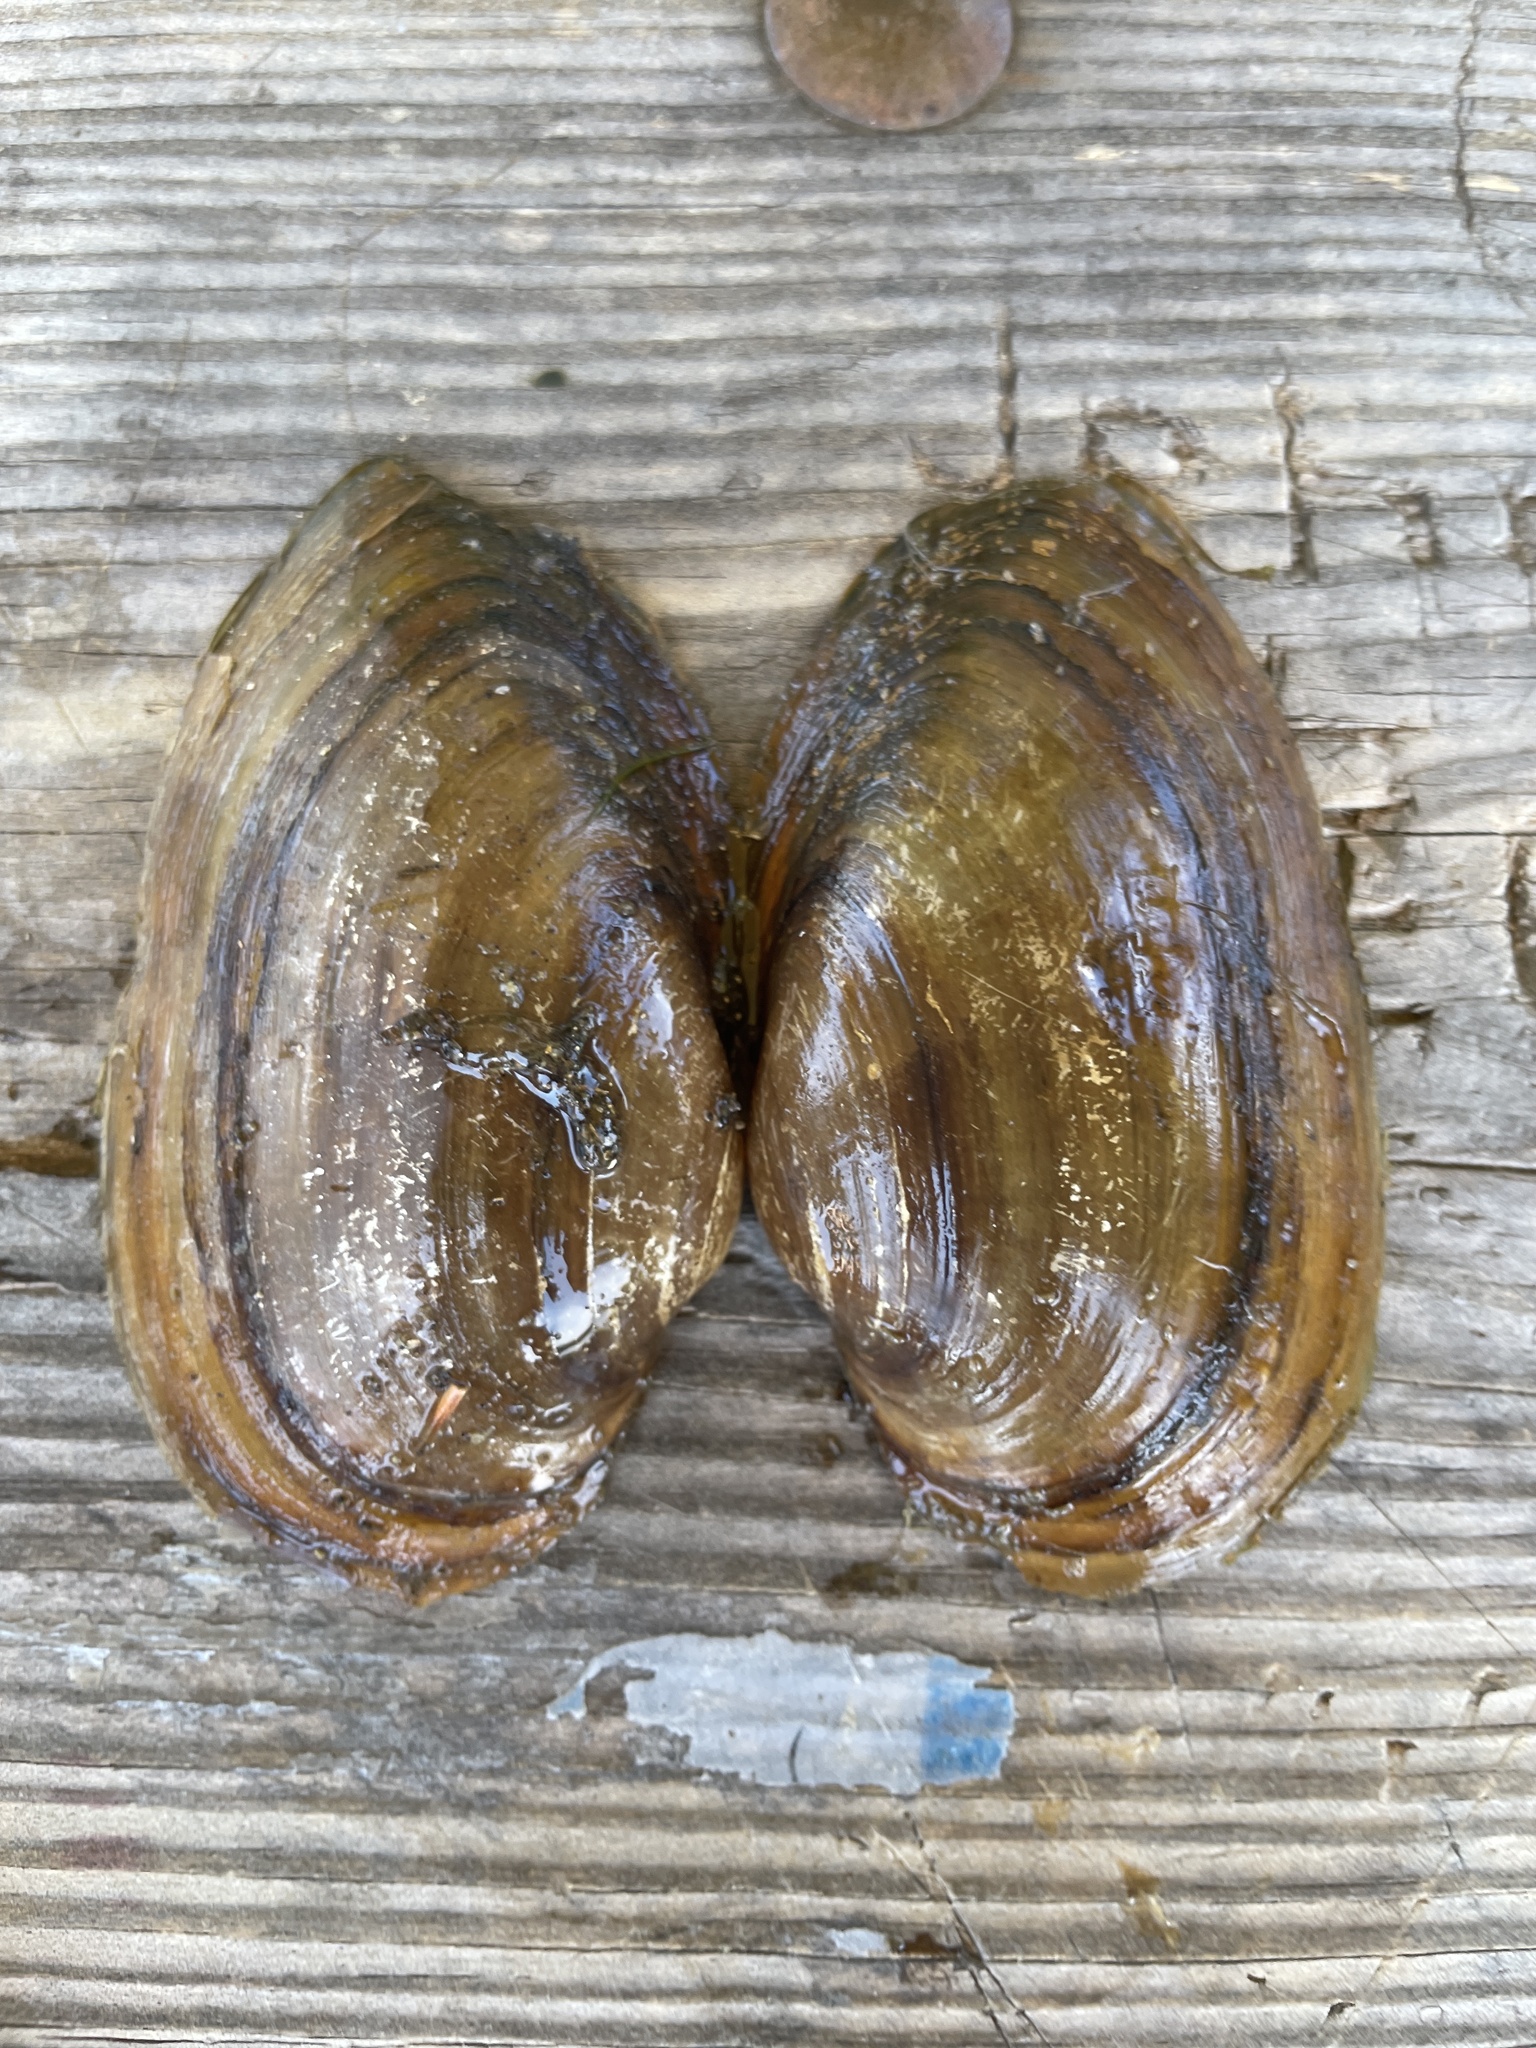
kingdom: Animalia
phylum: Mollusca
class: Bivalvia
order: Unionida
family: Unionidae
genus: Pyganodon
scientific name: Pyganodon grandis
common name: Giant floater
